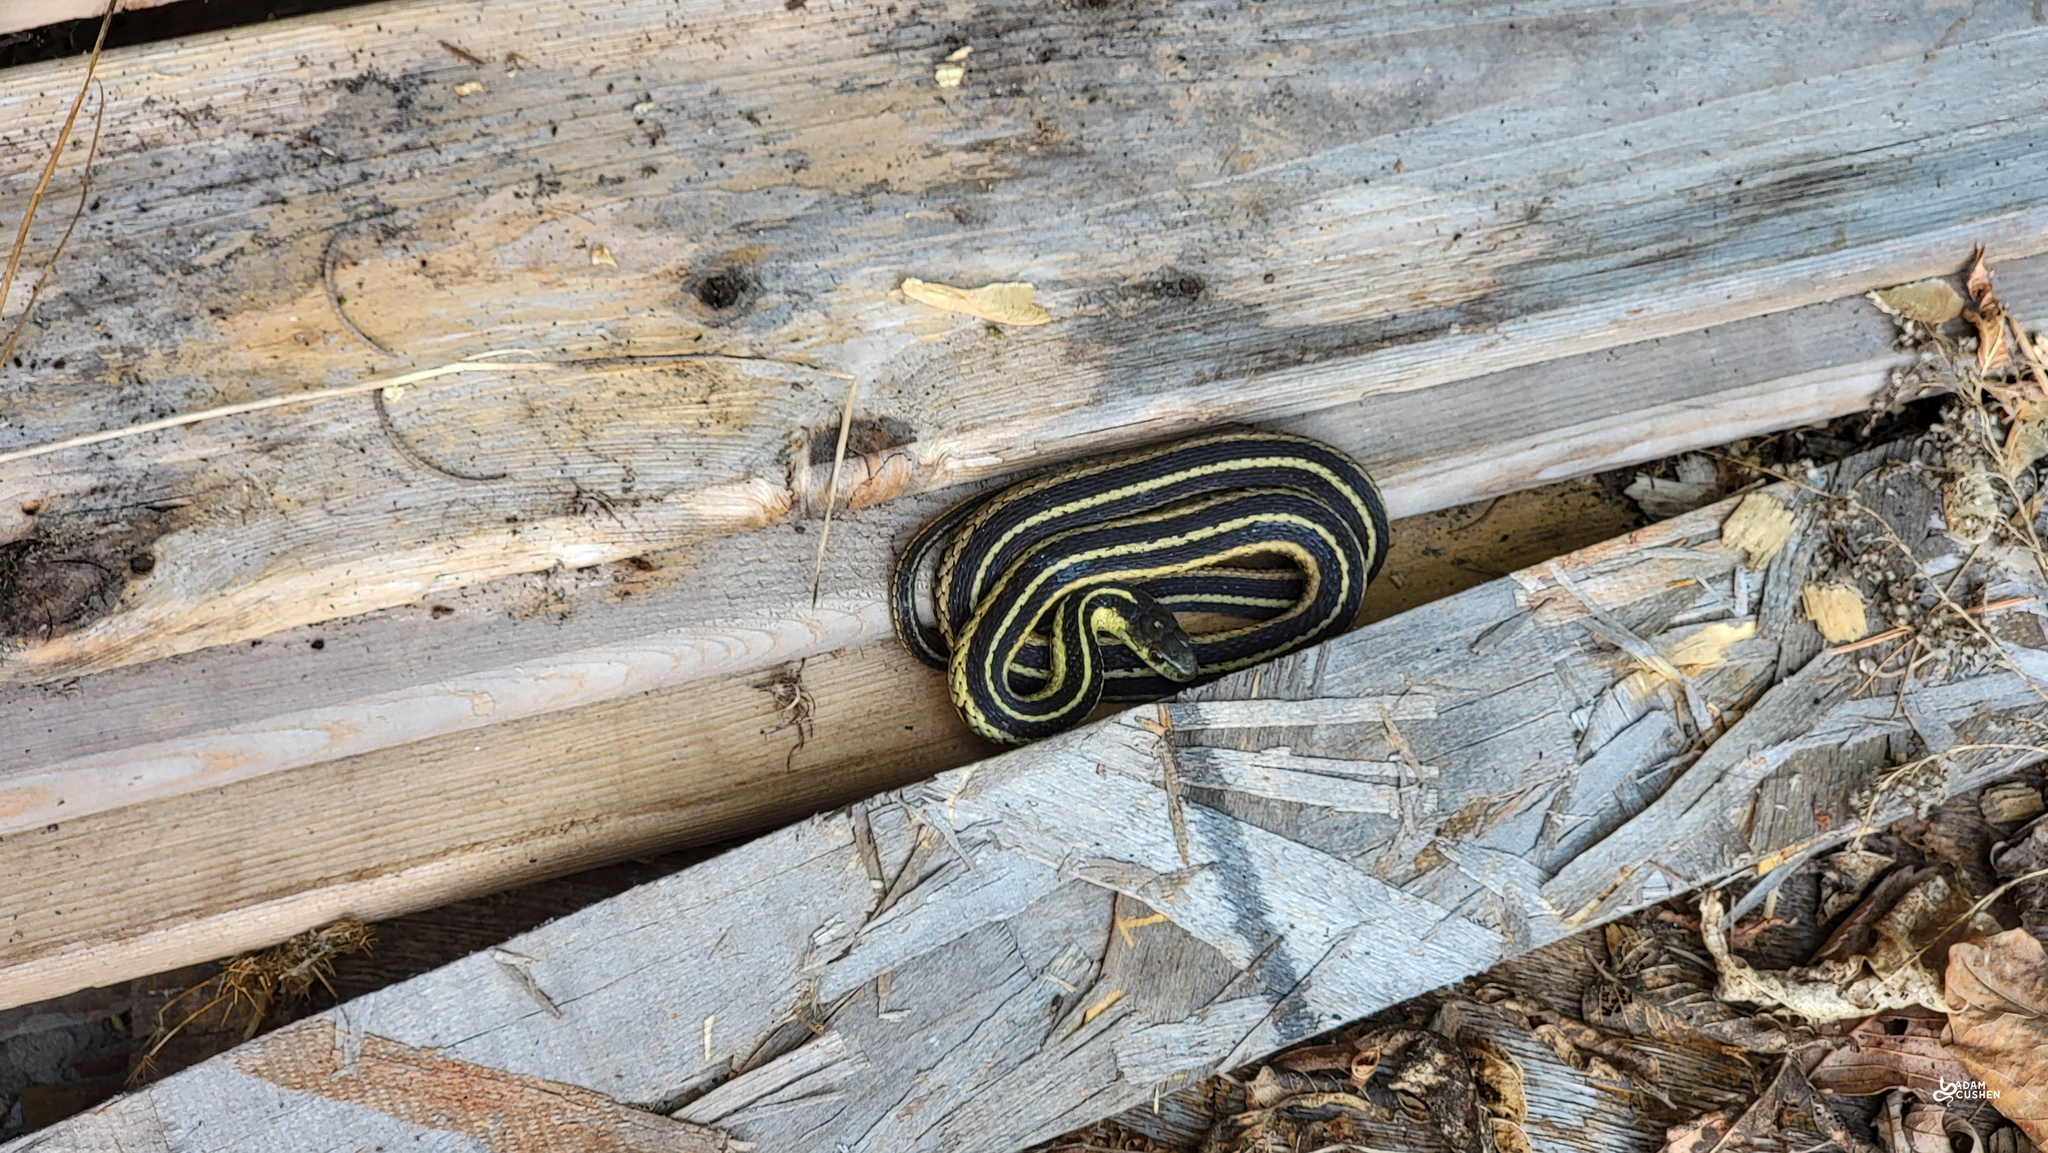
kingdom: Animalia
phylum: Chordata
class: Squamata
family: Colubridae
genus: Thamnophis
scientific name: Thamnophis sirtalis
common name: Common garter snake
